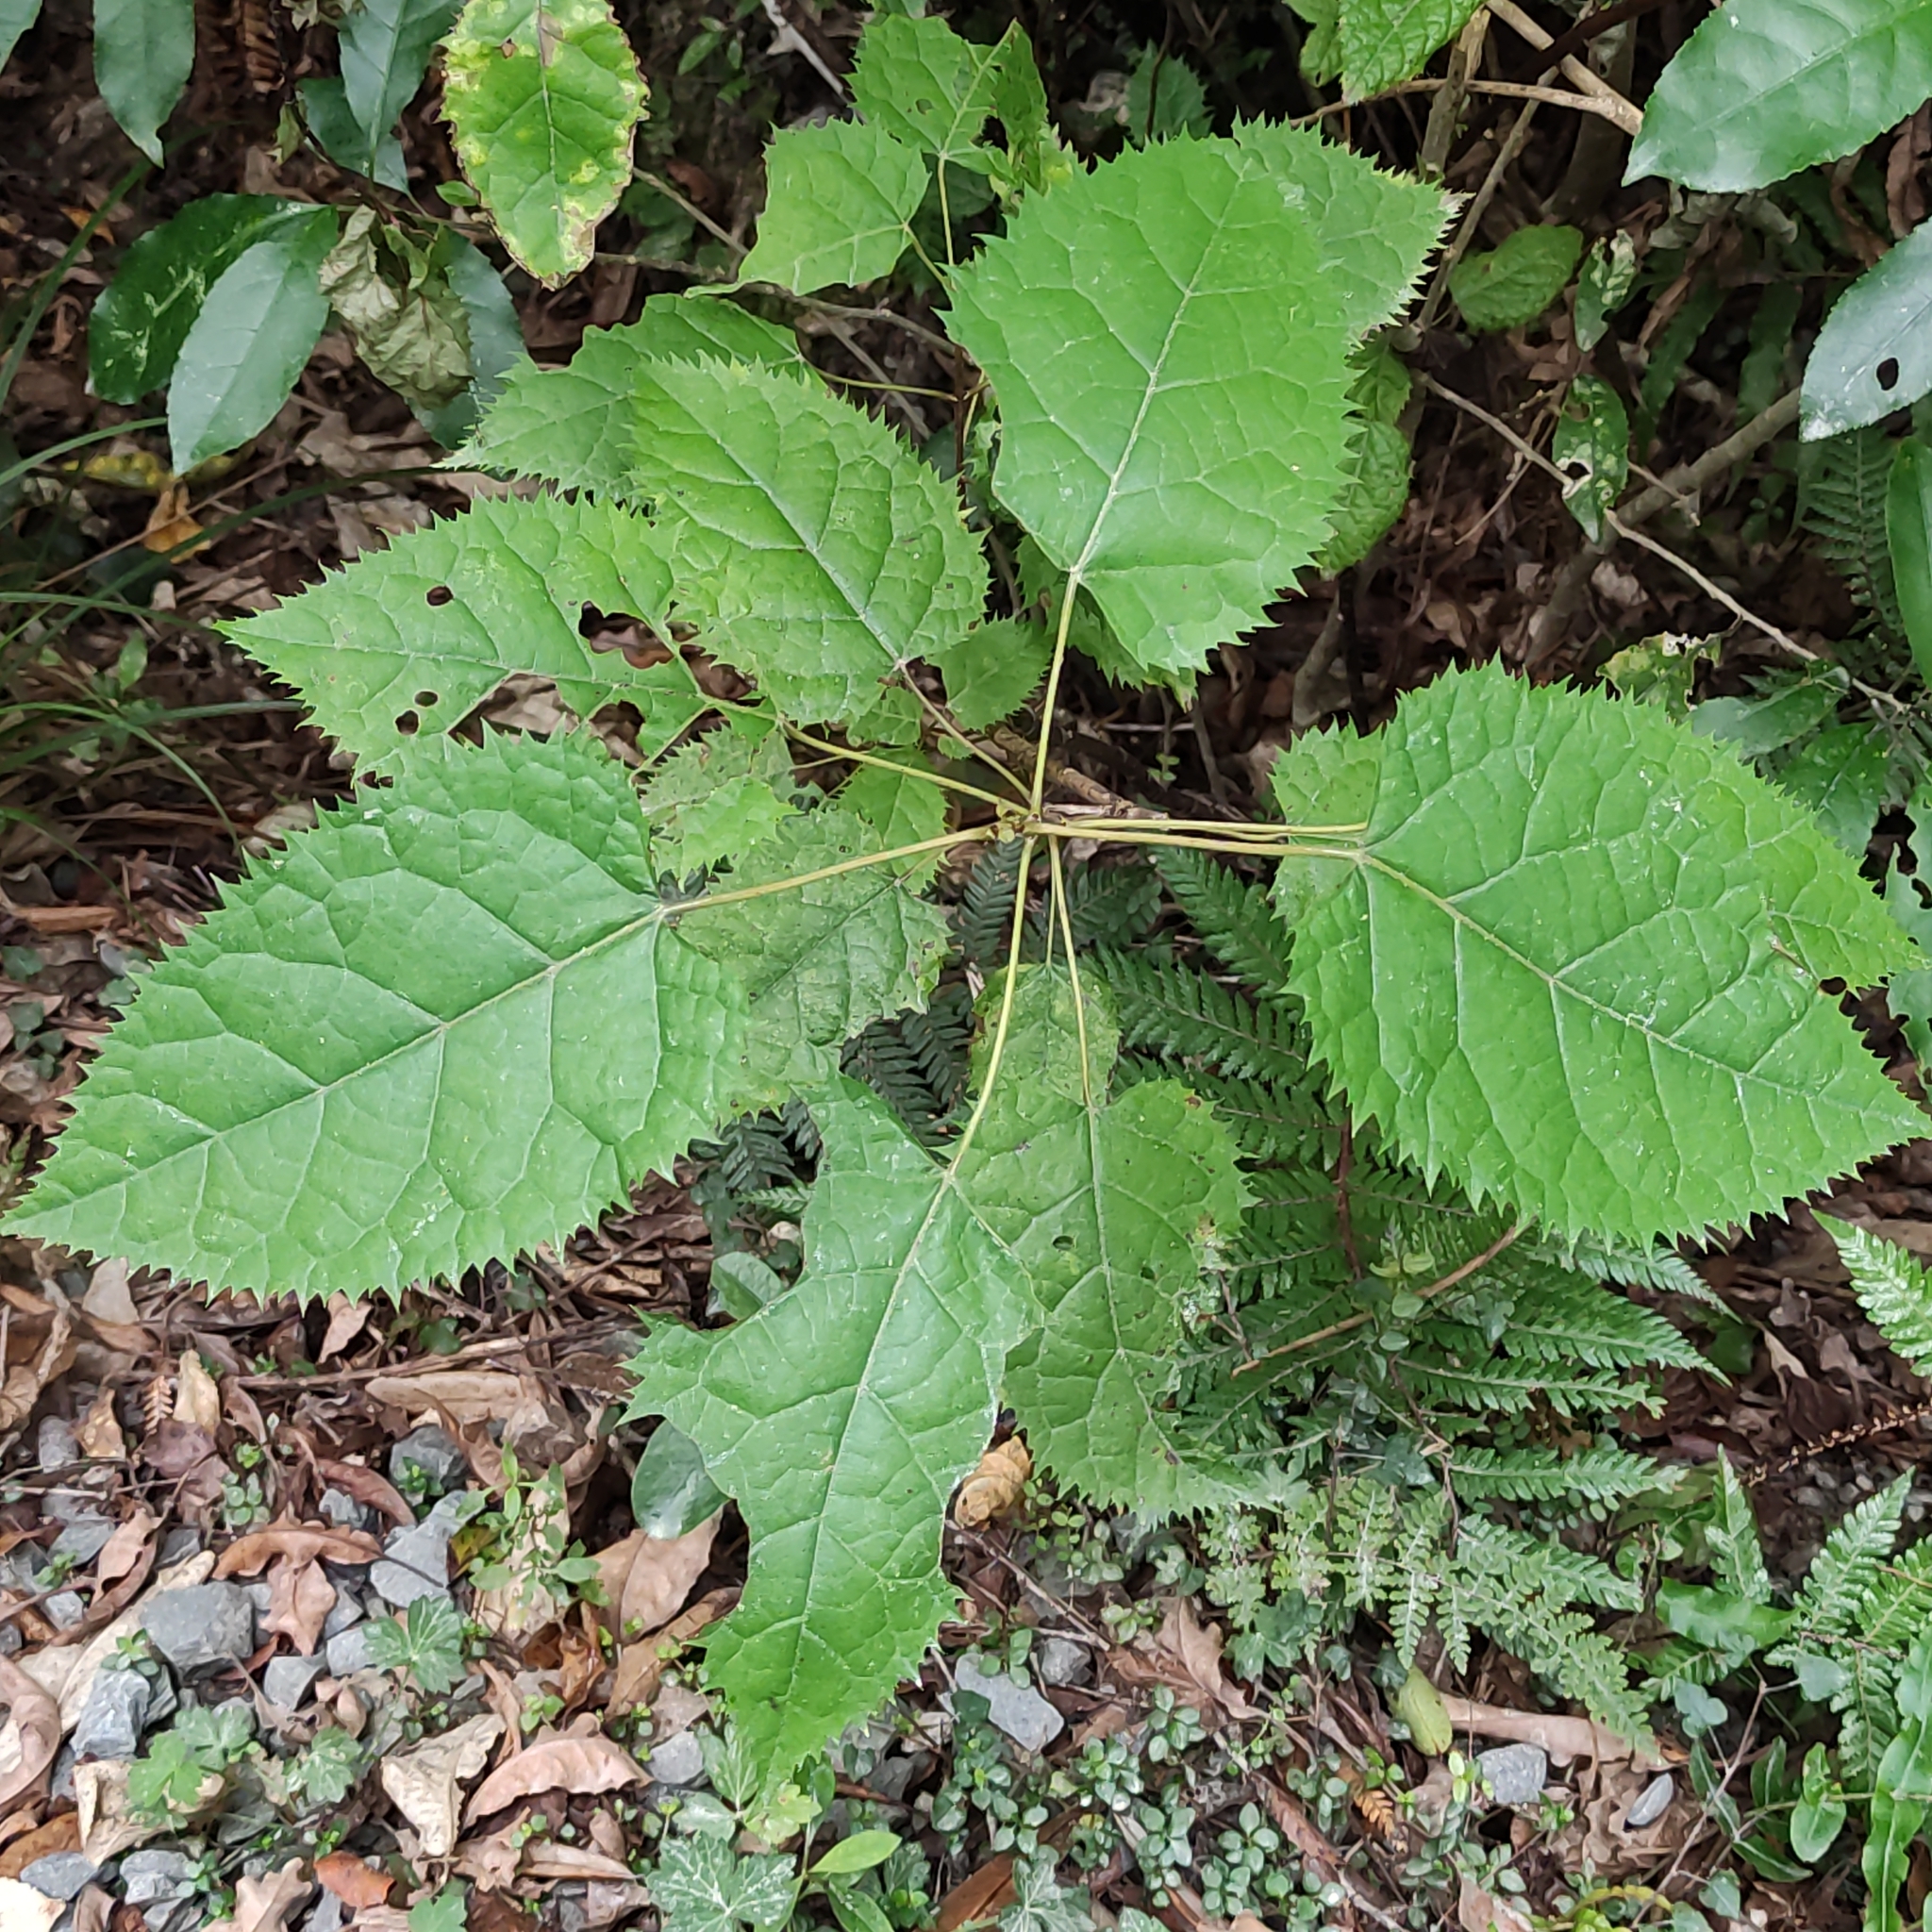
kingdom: Plantae
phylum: Tracheophyta
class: Magnoliopsida
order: Oxalidales
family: Elaeocarpaceae
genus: Aristotelia
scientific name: Aristotelia serrata
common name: New zealand wineberry
